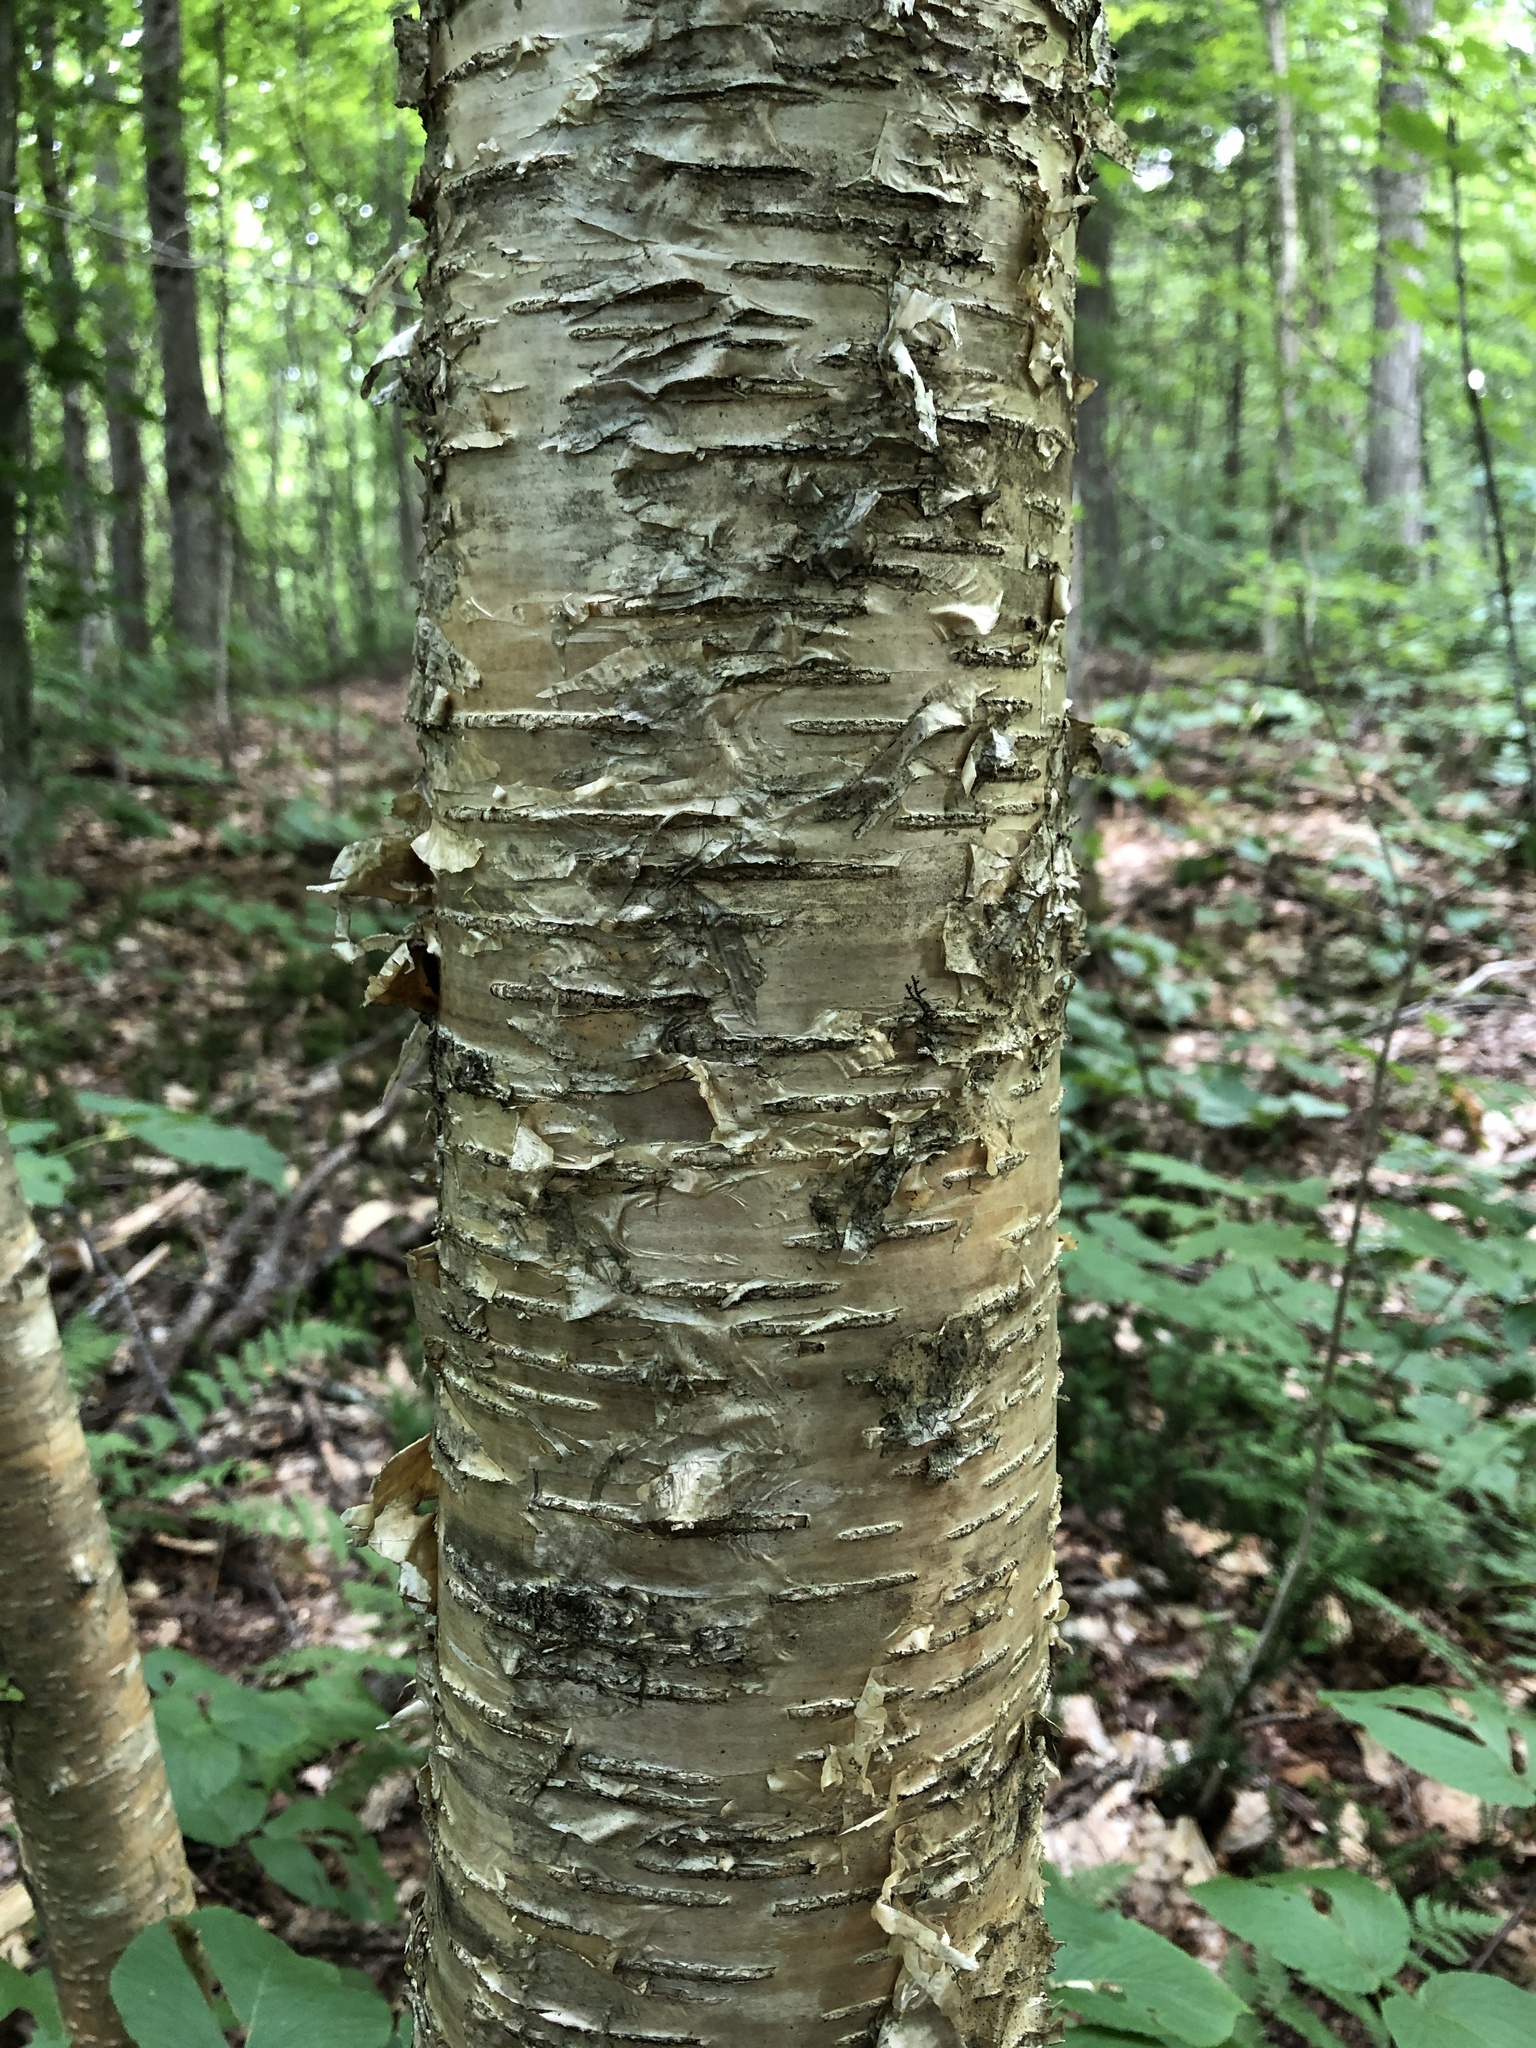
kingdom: Plantae
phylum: Tracheophyta
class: Magnoliopsida
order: Fagales
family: Betulaceae
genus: Betula
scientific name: Betula alleghaniensis
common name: Yellow birch
